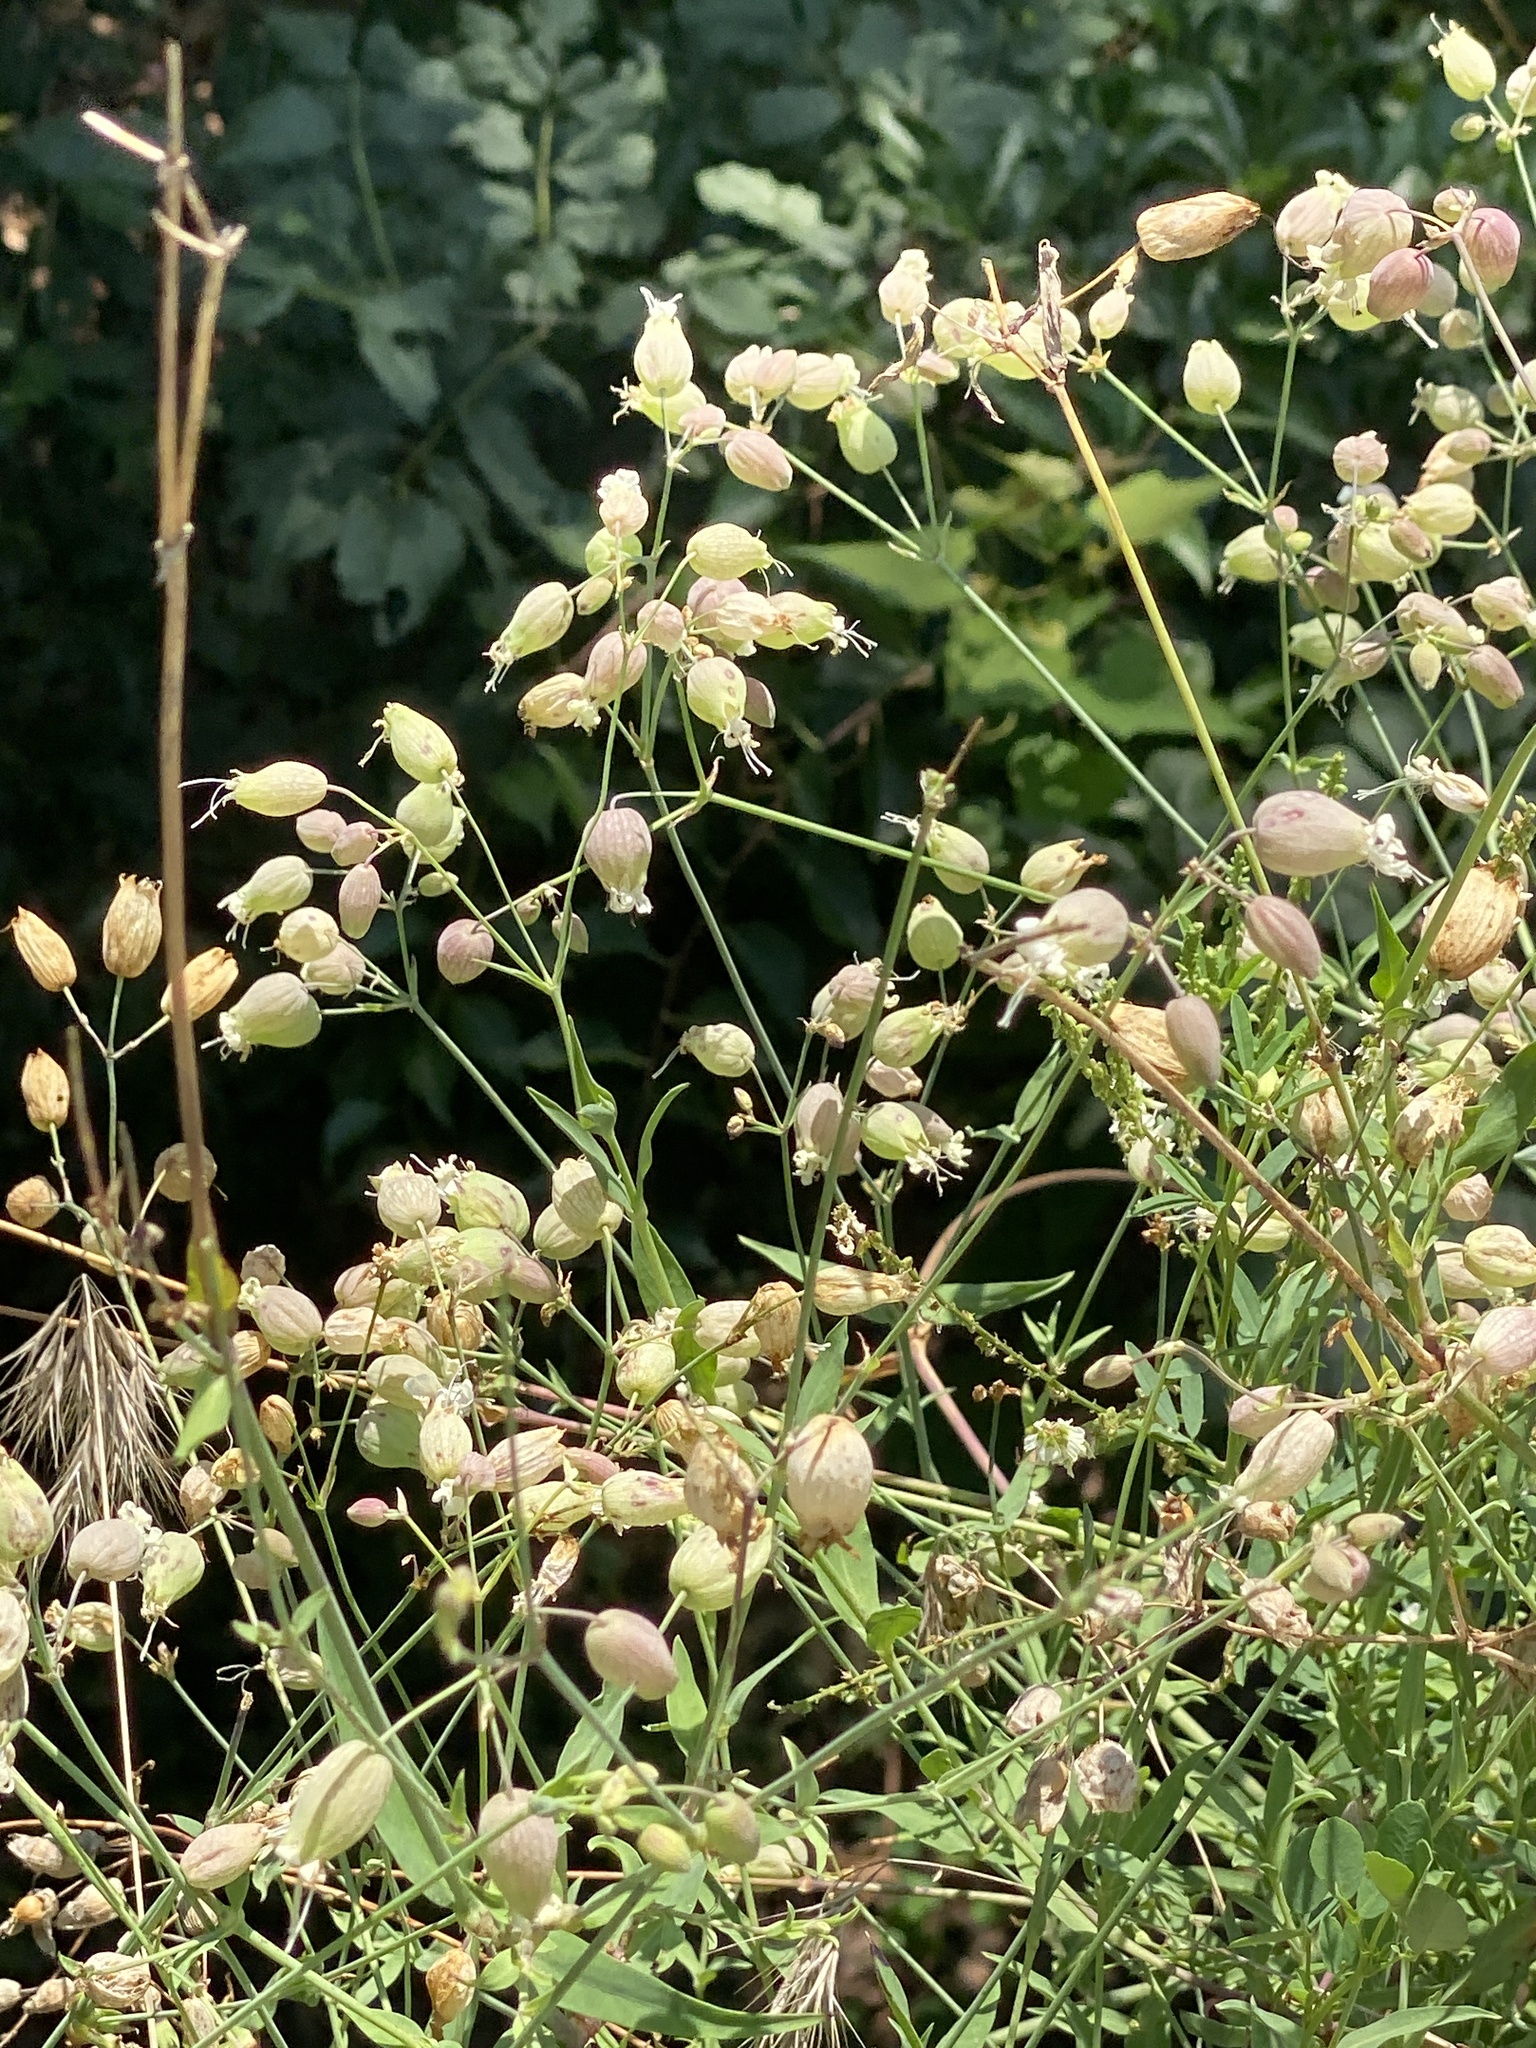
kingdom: Plantae
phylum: Tracheophyta
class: Magnoliopsida
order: Caryophyllales
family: Caryophyllaceae
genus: Silene
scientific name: Silene vulgaris
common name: Bladder campion
